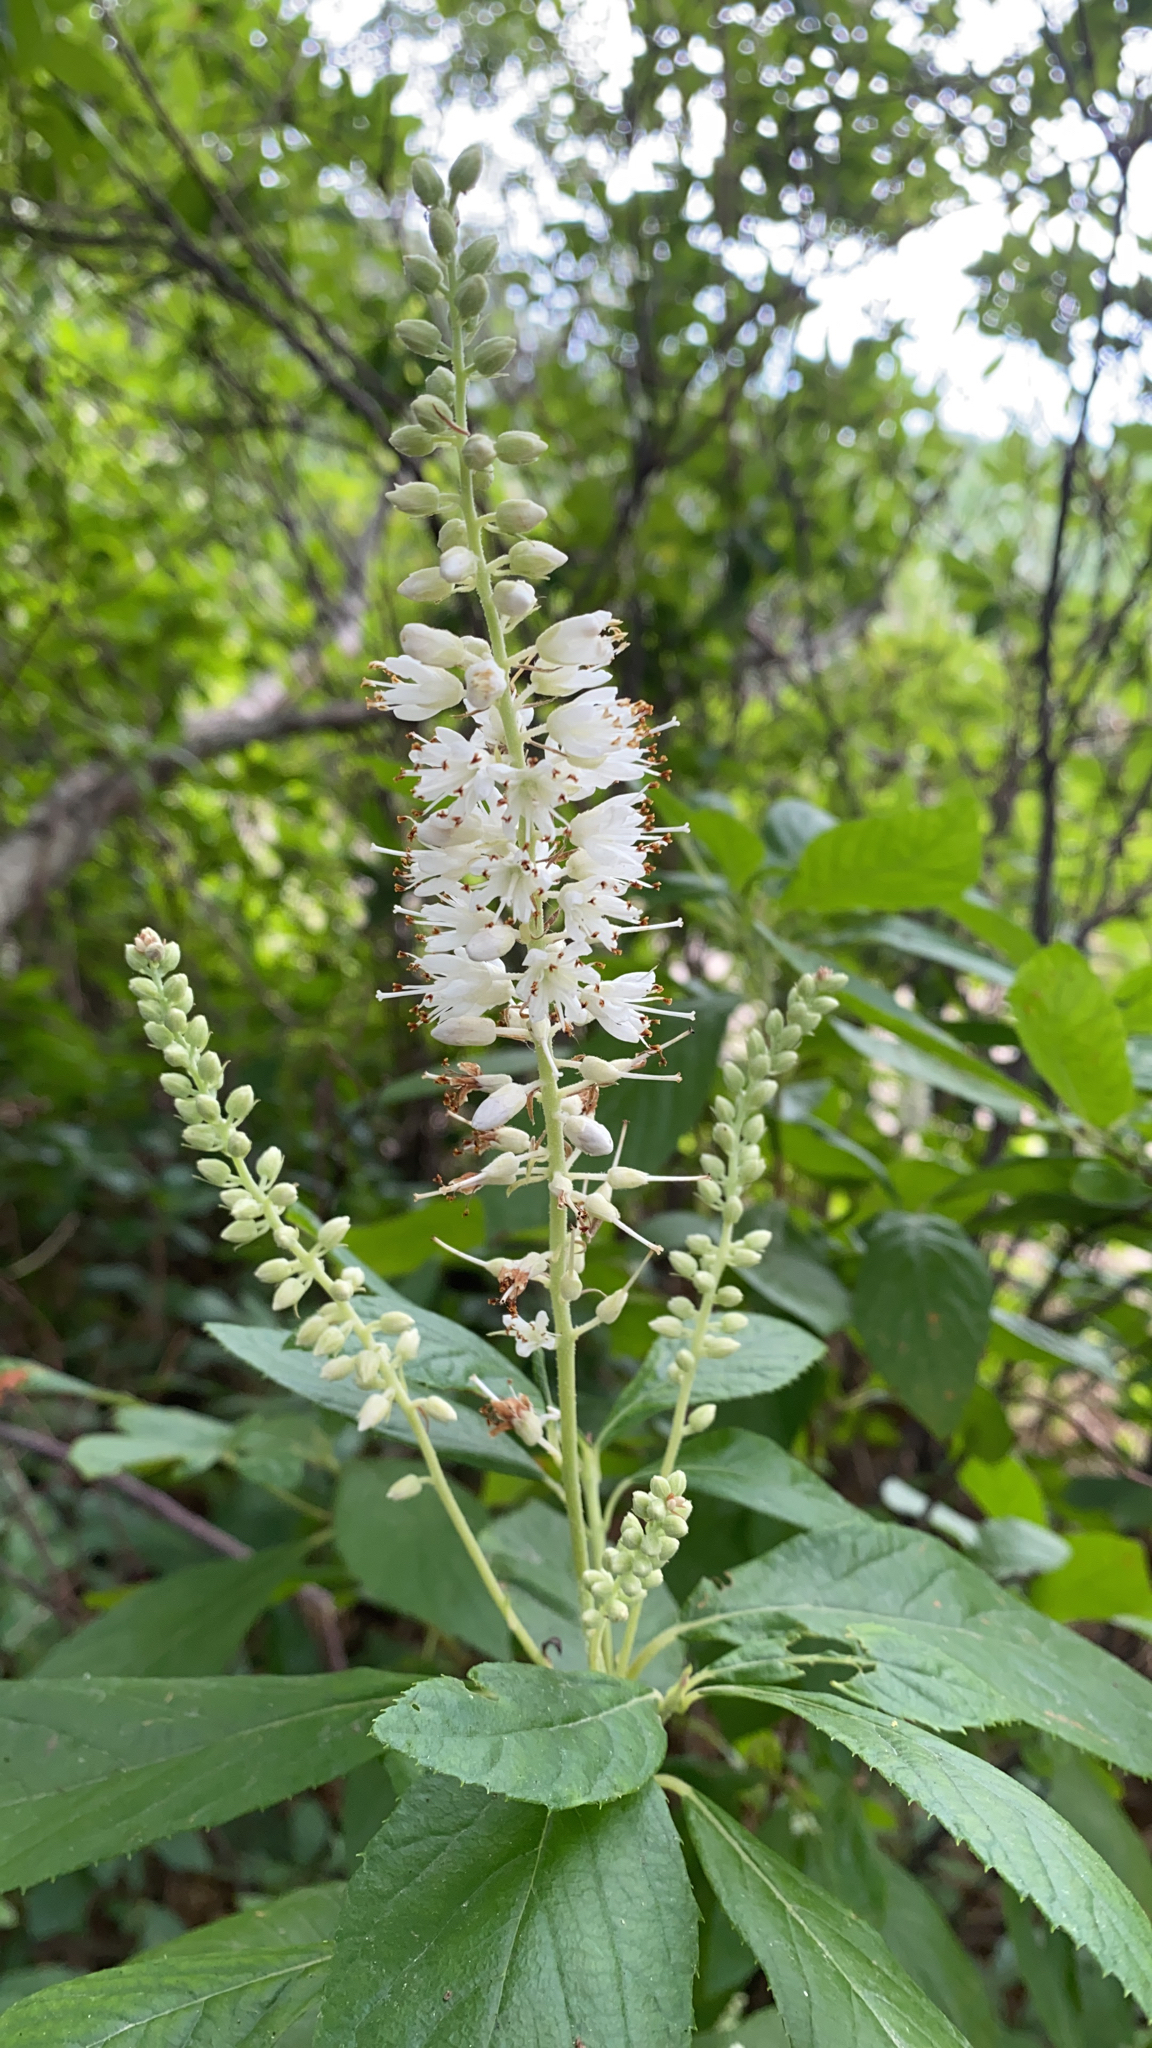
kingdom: Plantae
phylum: Tracheophyta
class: Magnoliopsida
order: Ericales
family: Clethraceae
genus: Clethra
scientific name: Clethra alnifolia
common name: Sweet pepperbush
